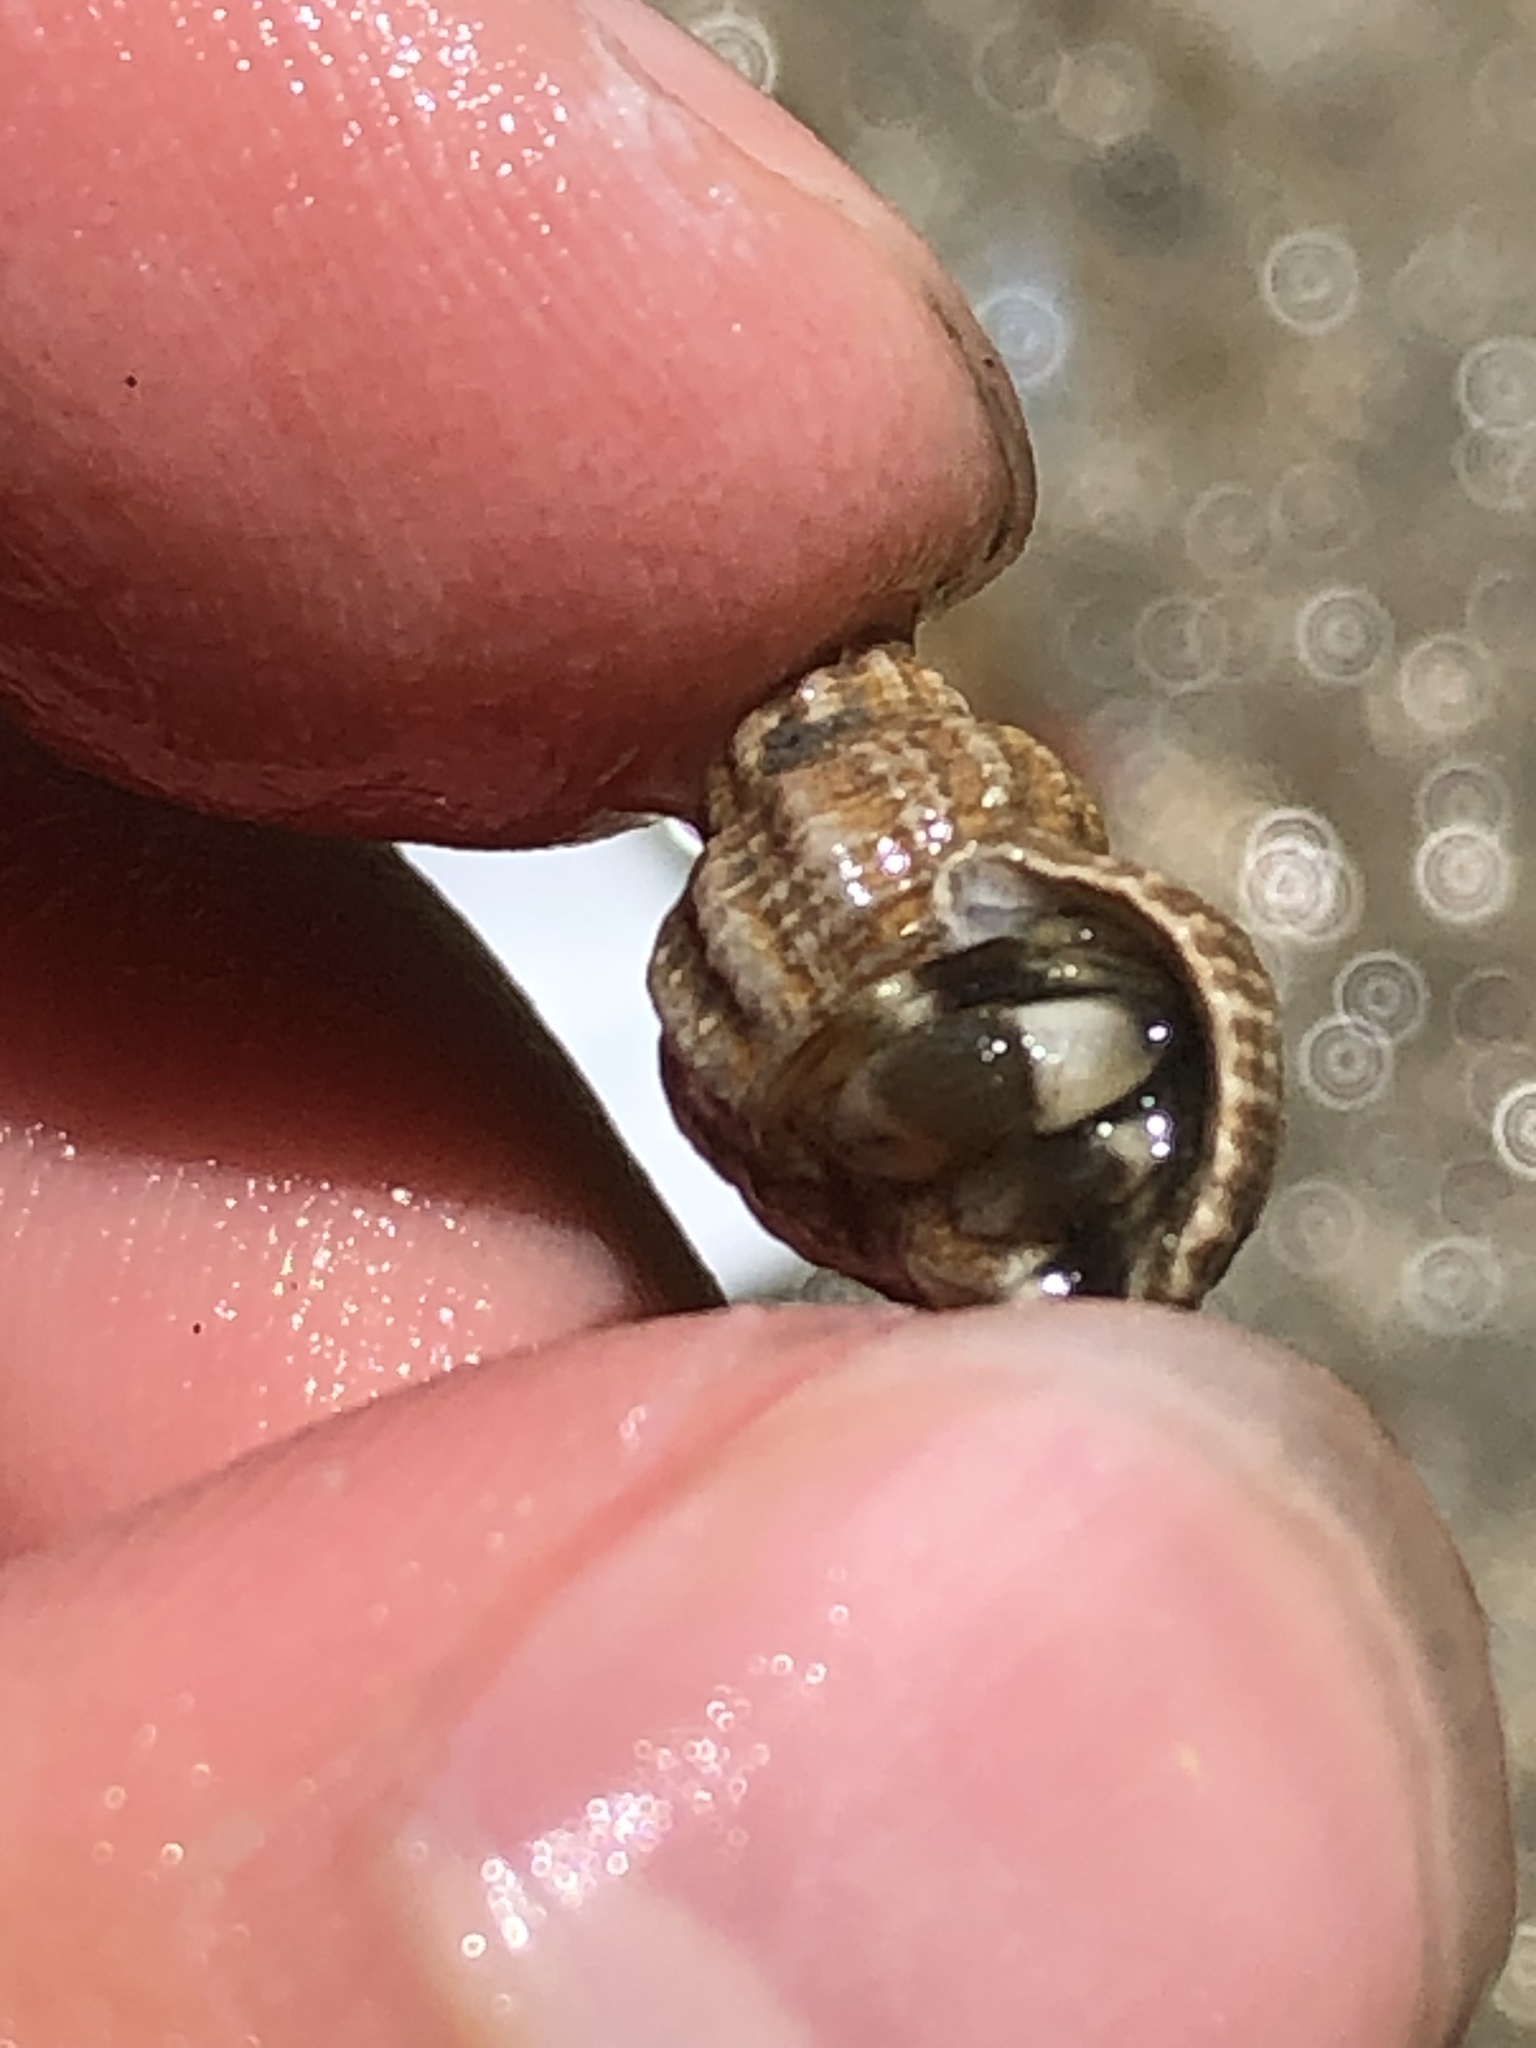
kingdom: Animalia
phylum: Arthropoda
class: Malacostraca
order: Decapoda
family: Paguridae
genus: Pagurus
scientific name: Pagurus hirsutiusculus
